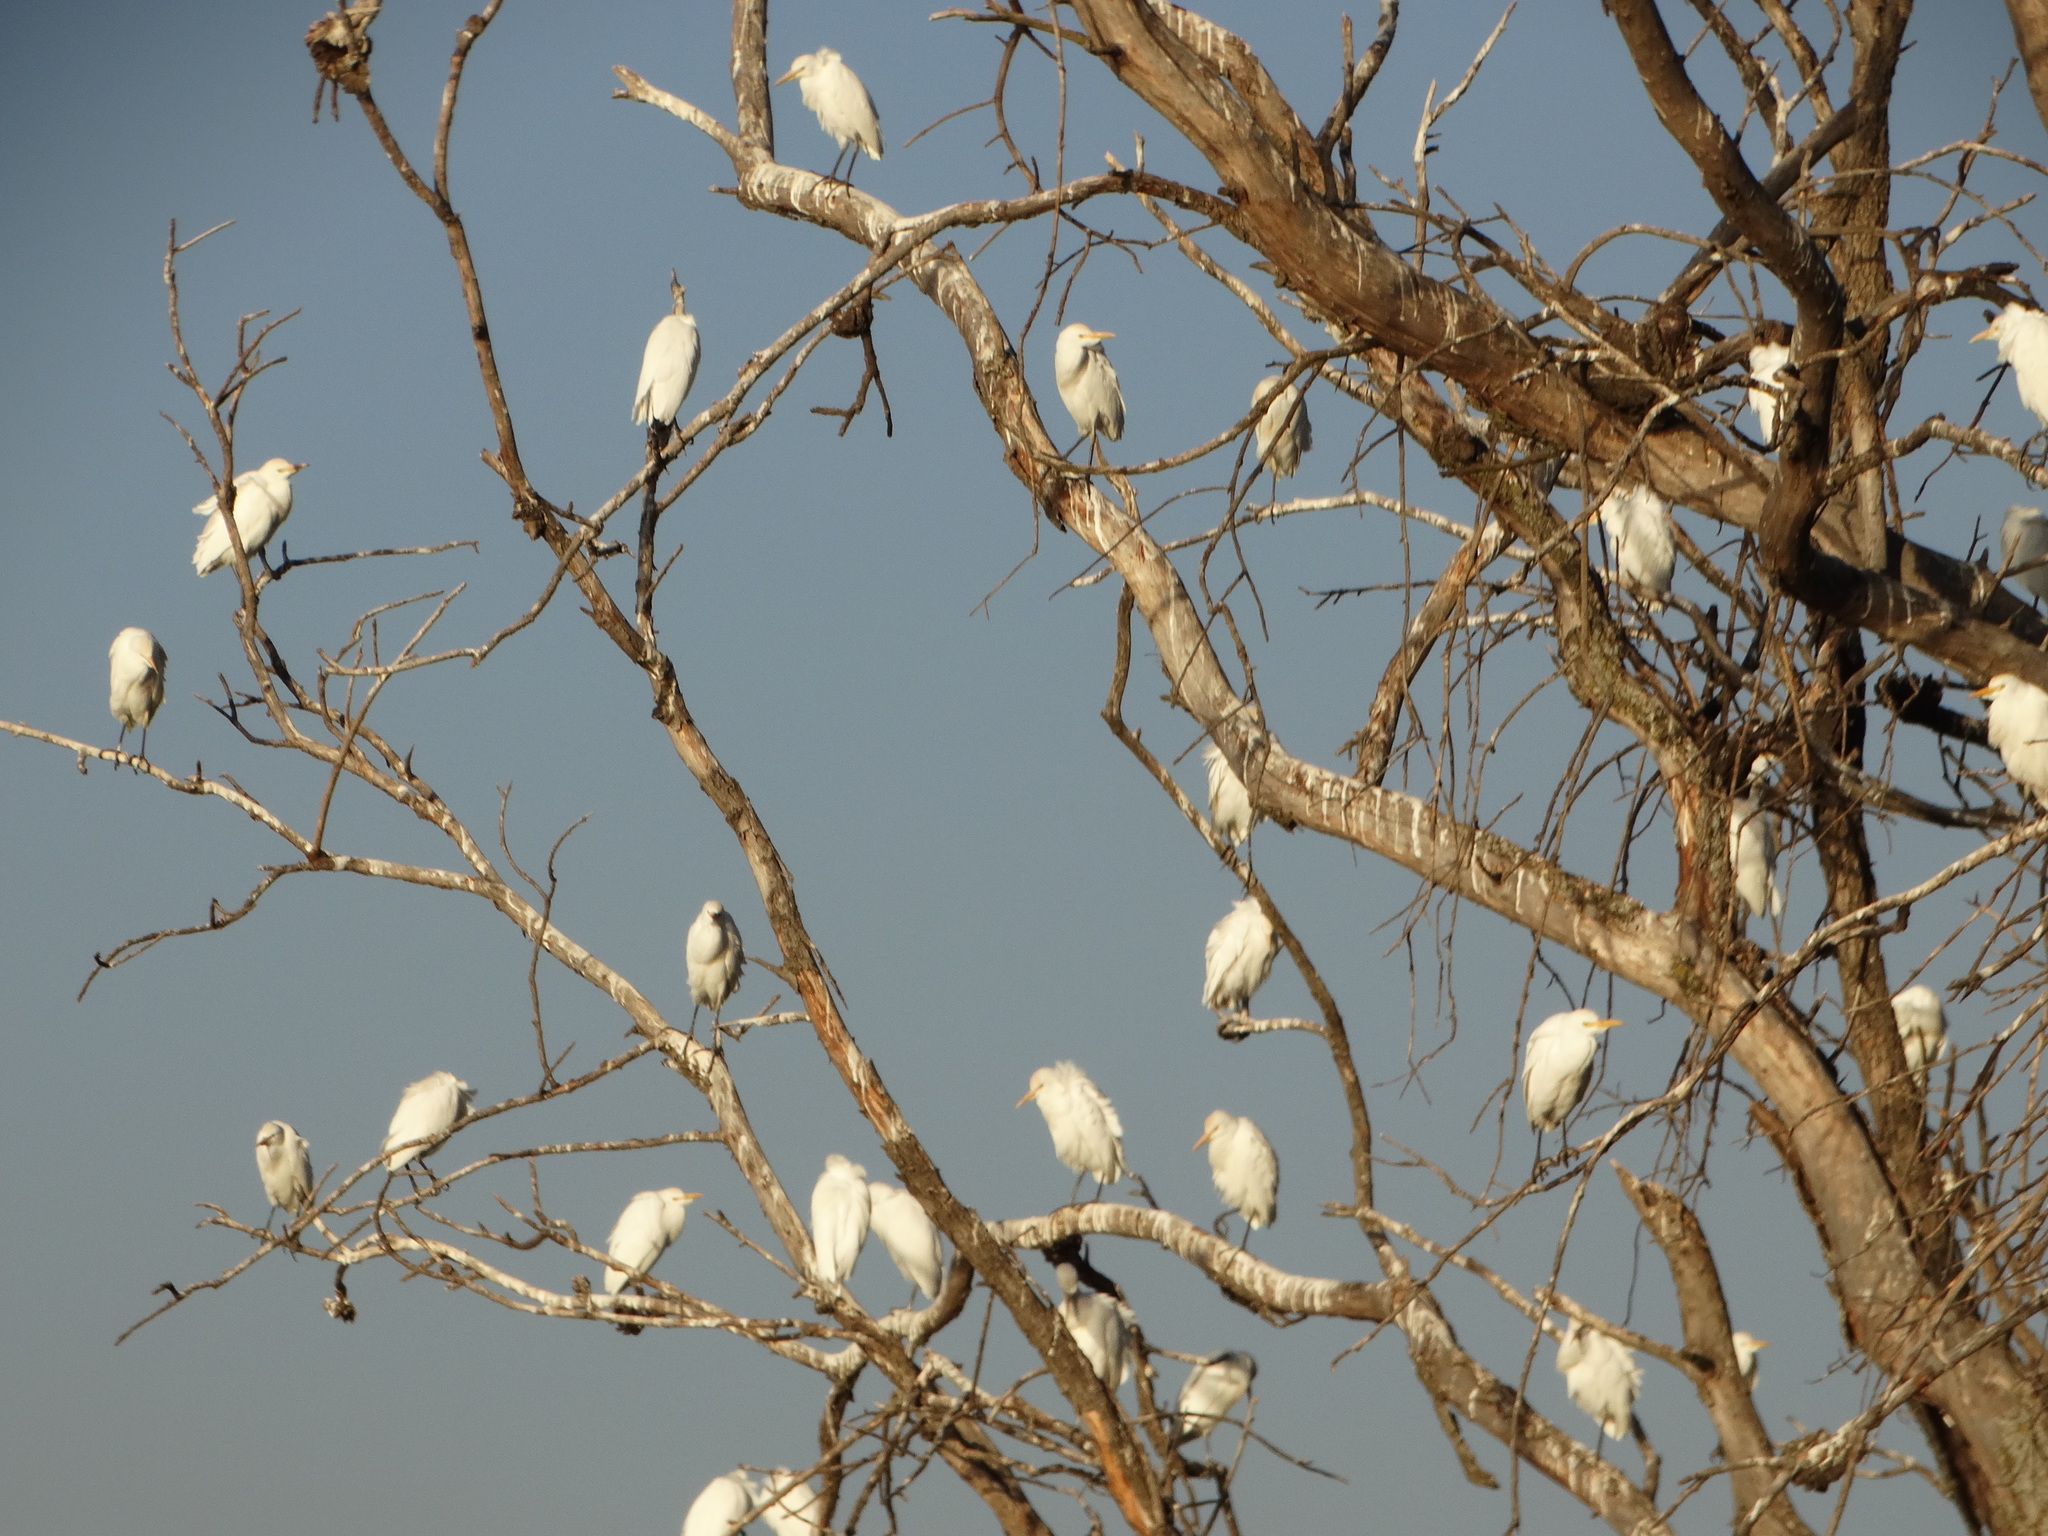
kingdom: Animalia
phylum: Chordata
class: Aves
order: Pelecaniformes
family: Ardeidae
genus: Bubulcus
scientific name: Bubulcus ibis
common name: Cattle egret
